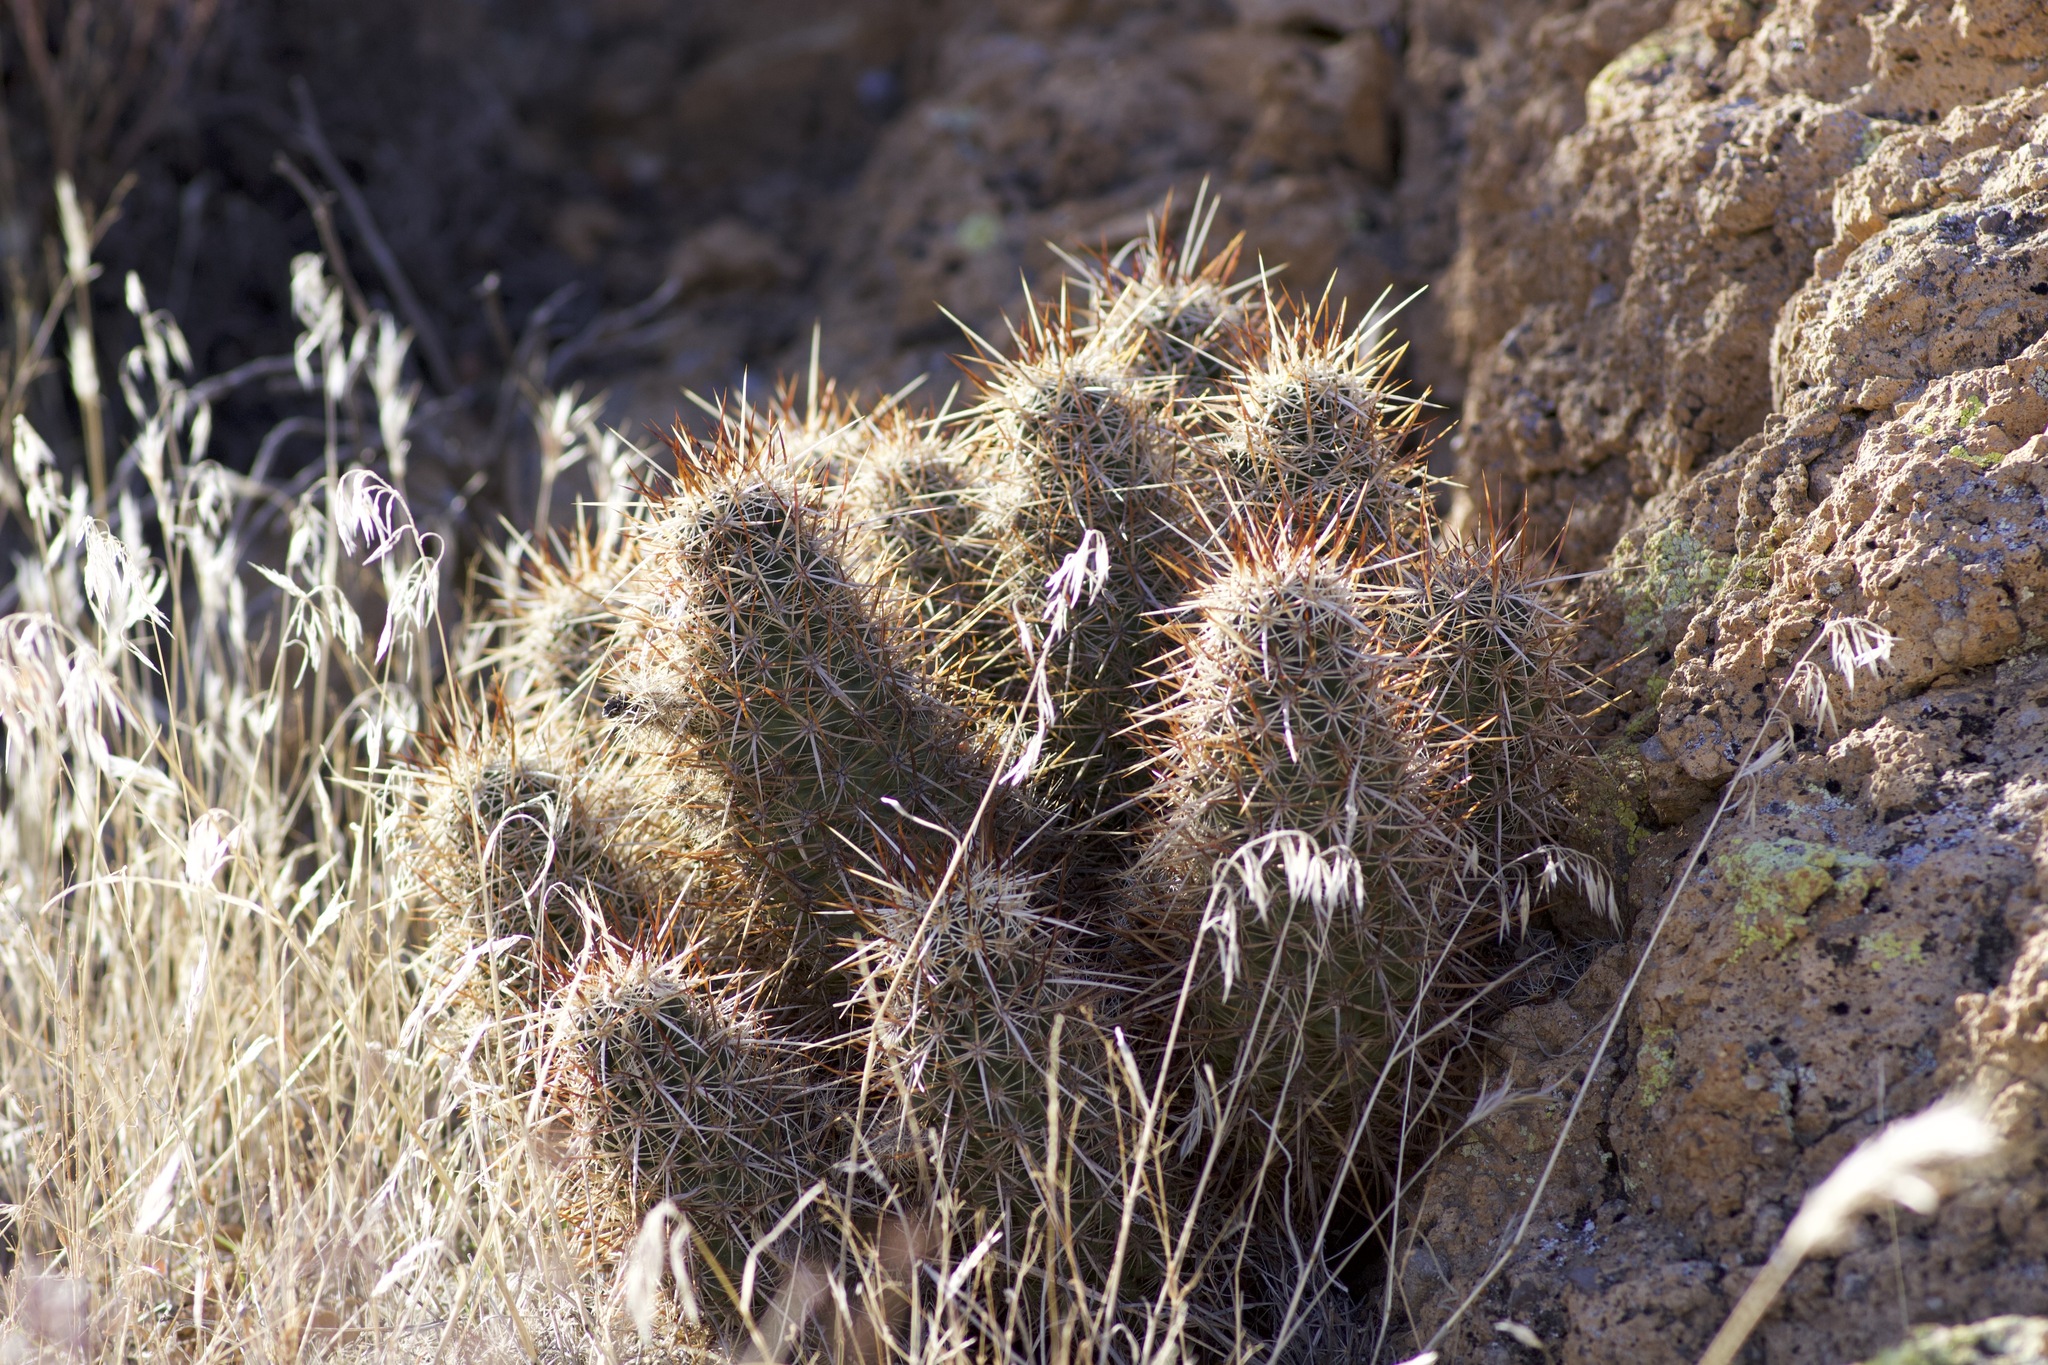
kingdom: Plantae
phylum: Tracheophyta
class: Magnoliopsida
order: Caryophyllales
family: Cactaceae
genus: Echinocereus
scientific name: Echinocereus engelmannii
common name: Engelmann's hedgehog cactus
